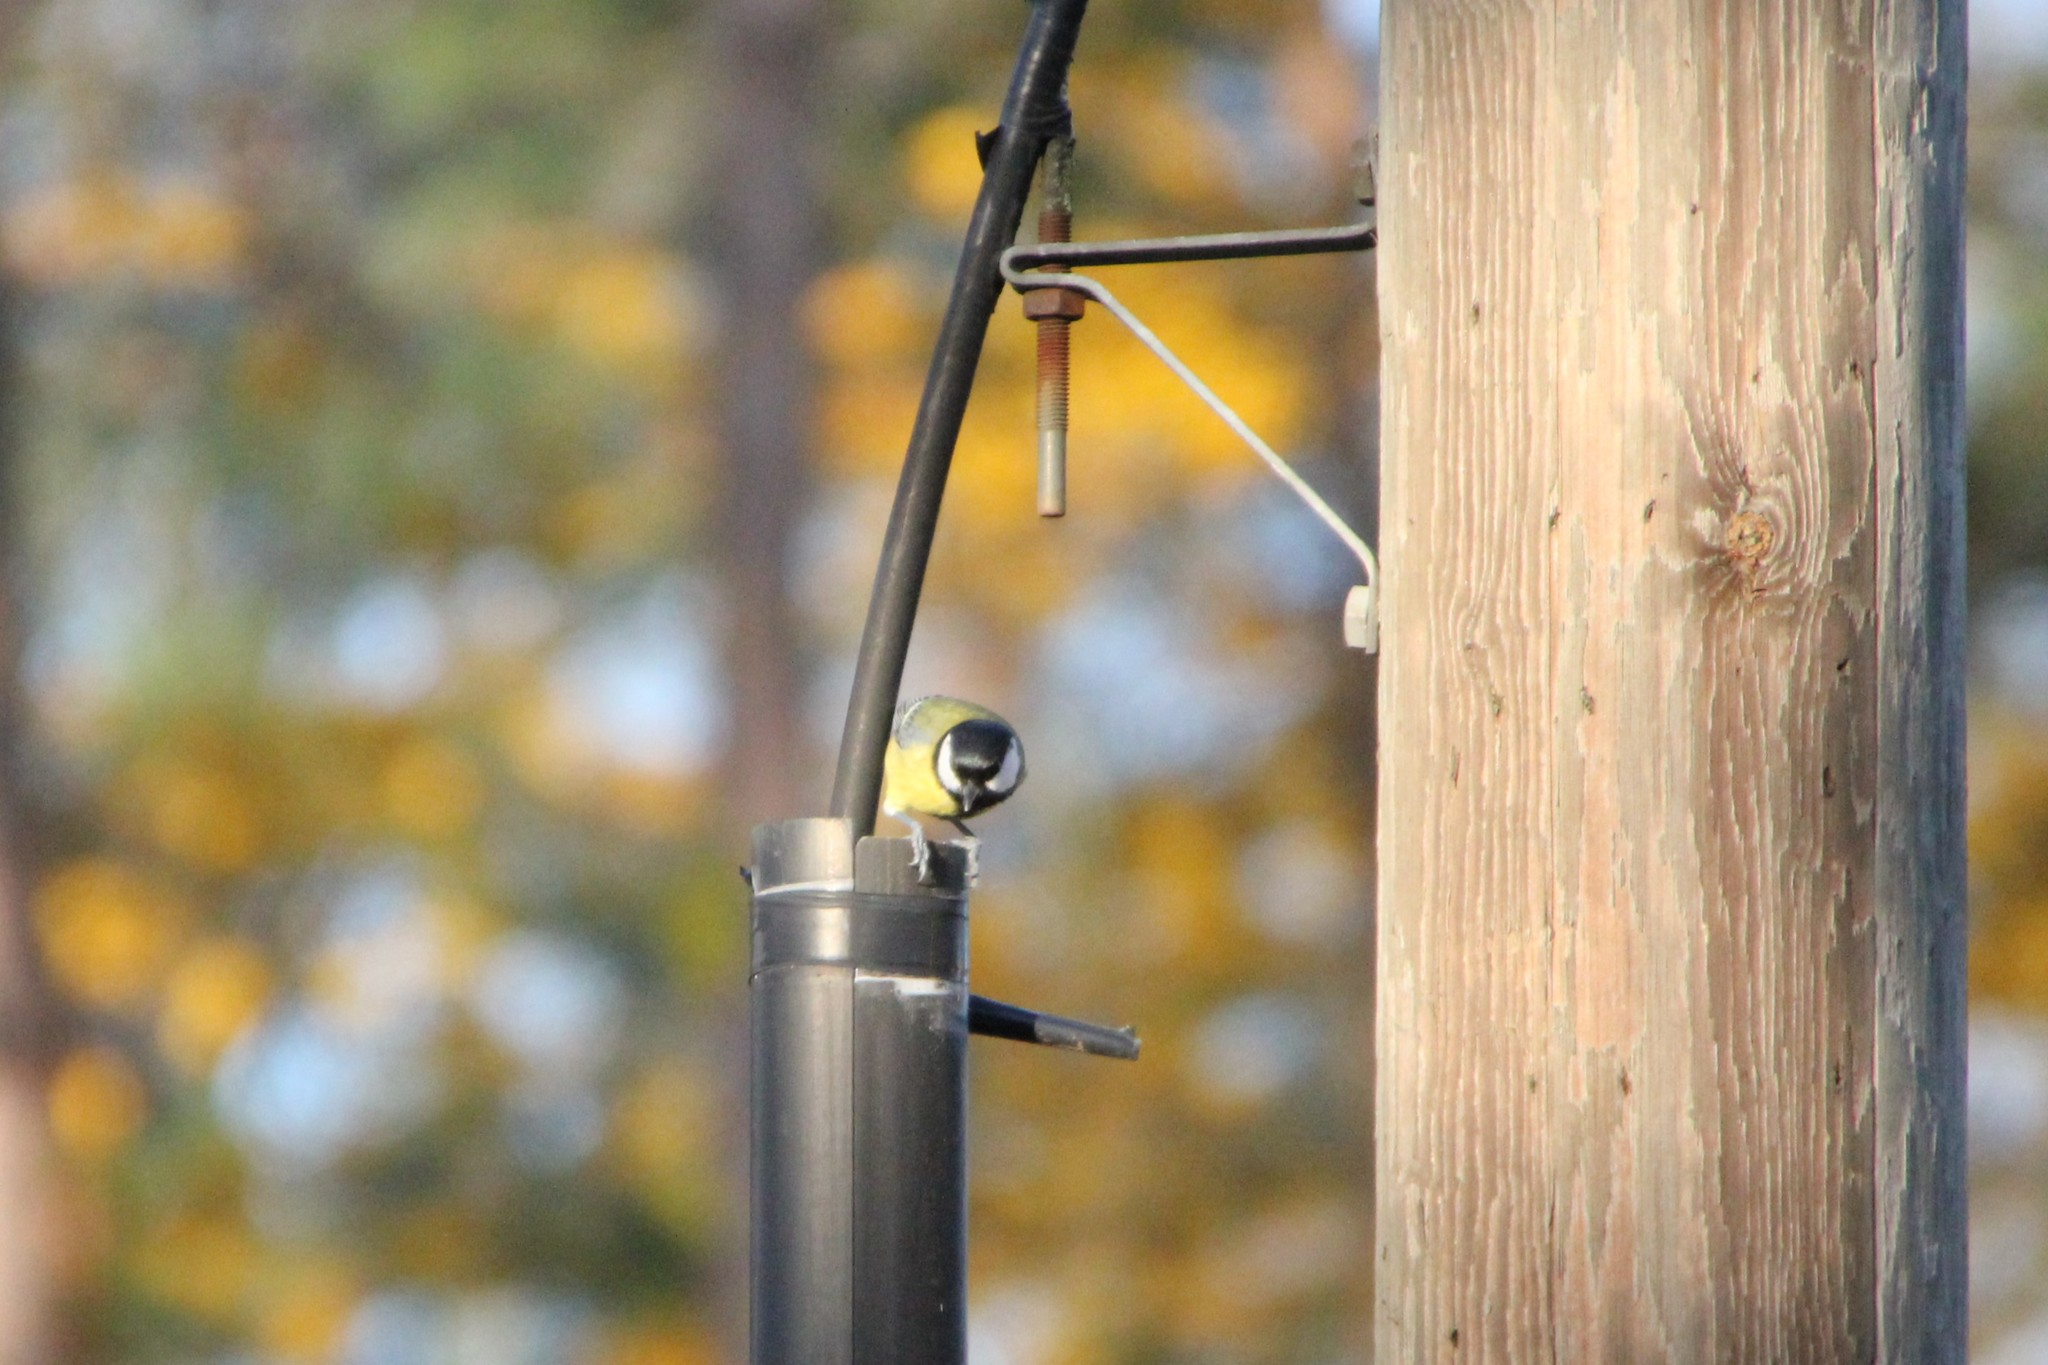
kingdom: Animalia
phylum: Chordata
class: Aves
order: Passeriformes
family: Paridae
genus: Parus
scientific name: Parus major
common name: Great tit
